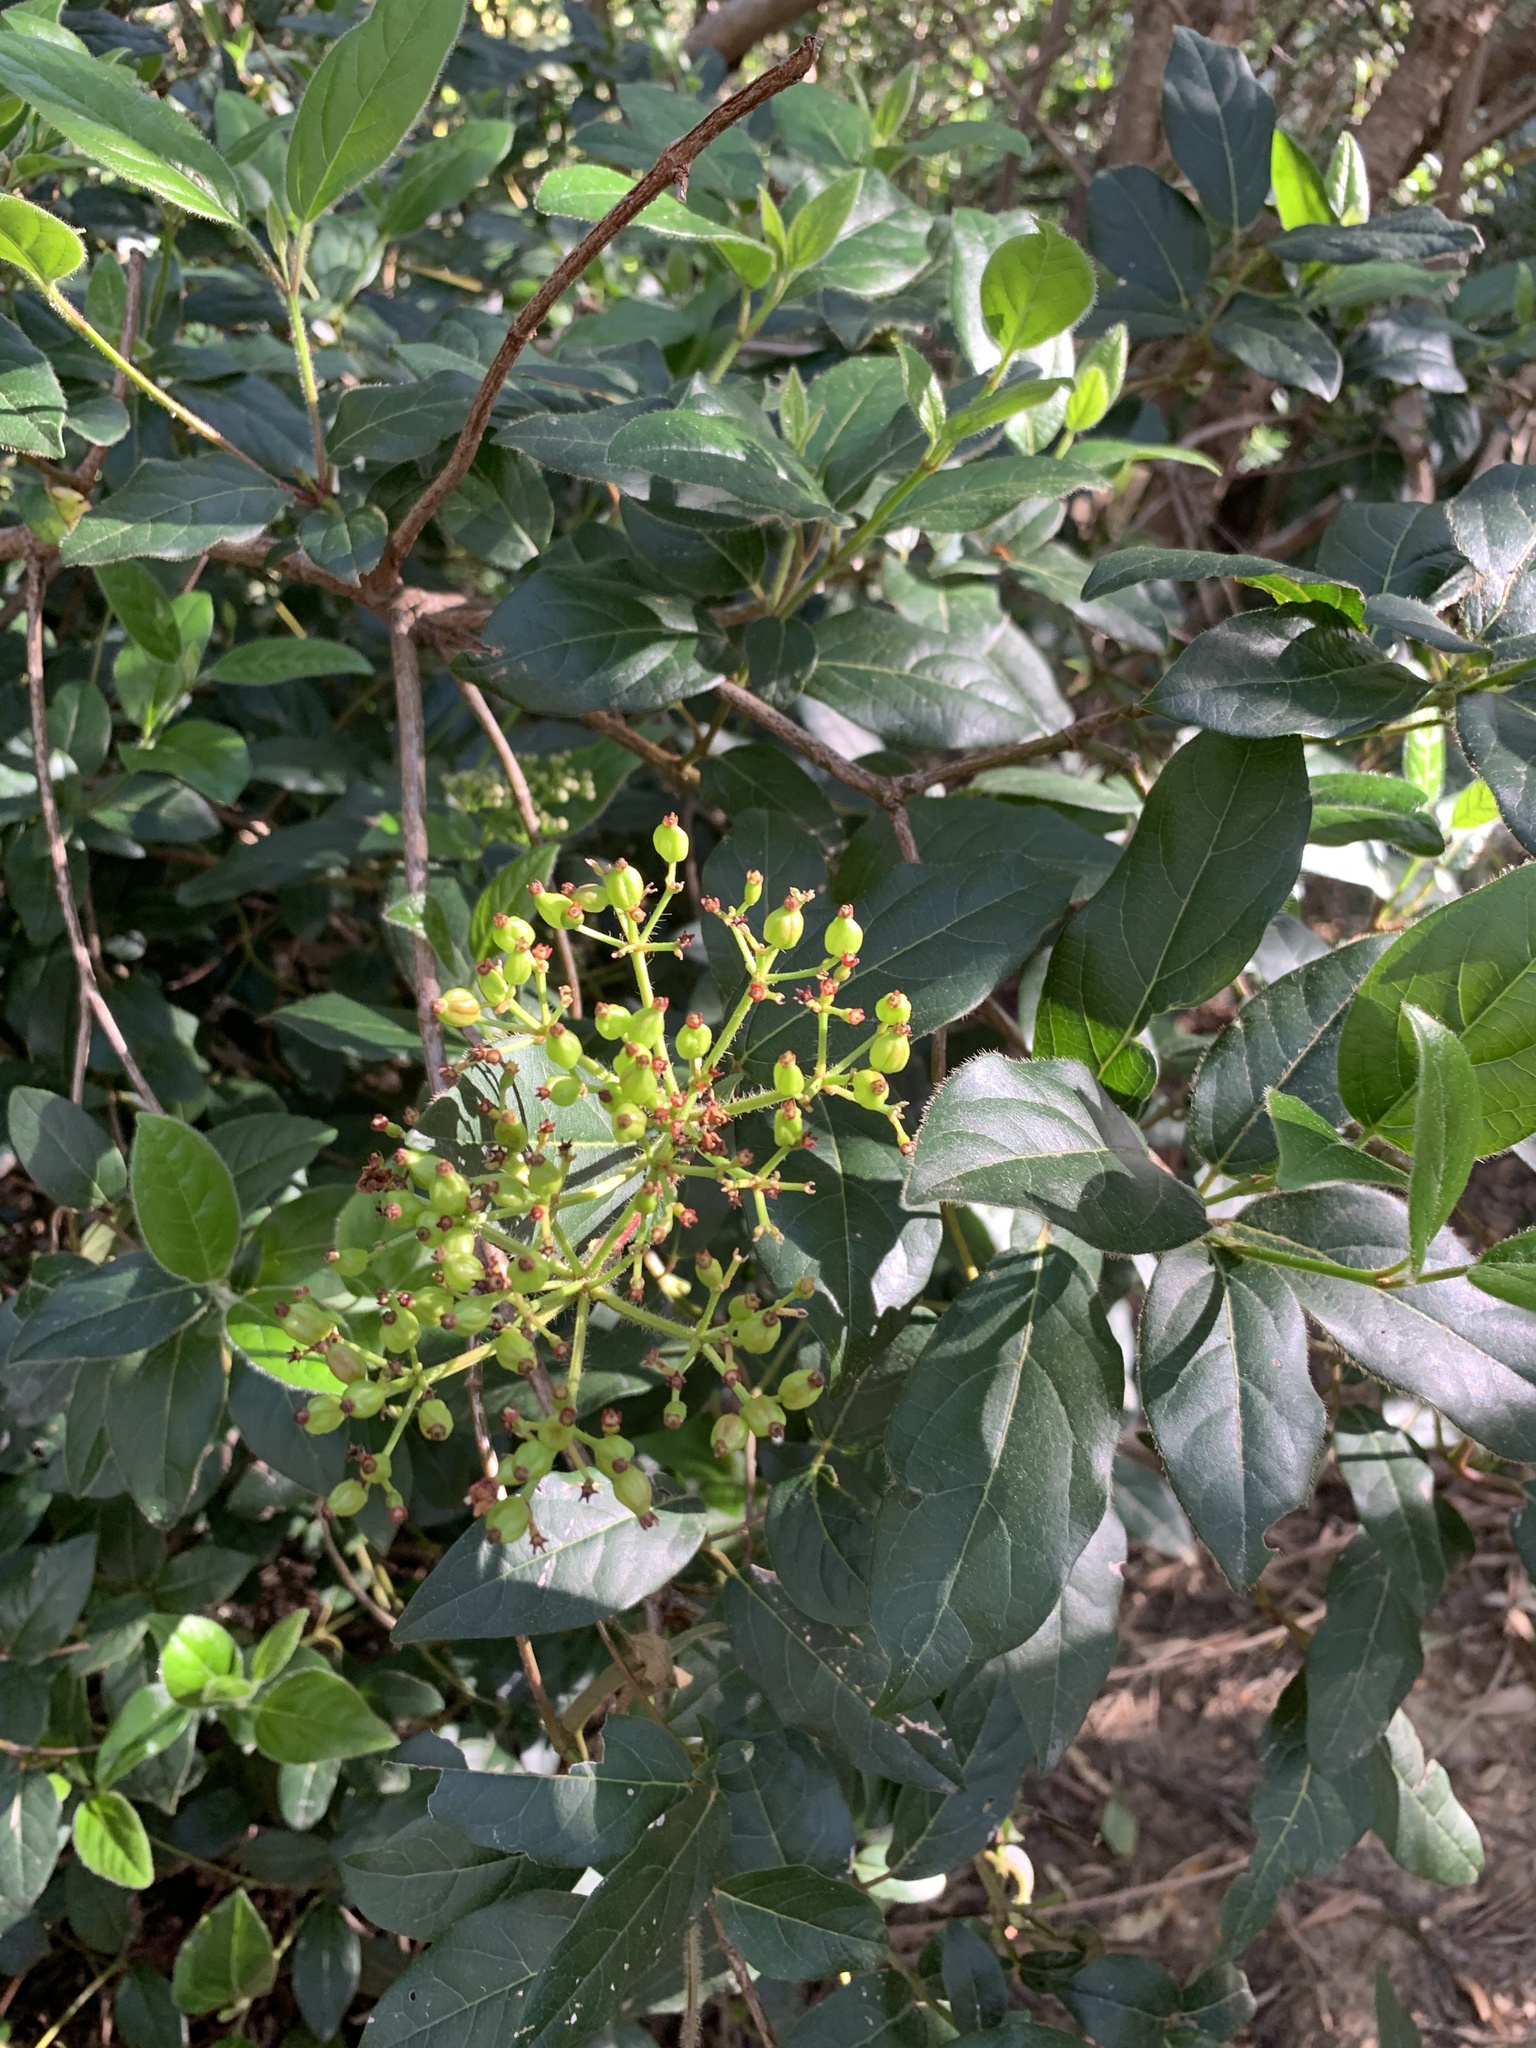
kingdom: Plantae
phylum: Tracheophyta
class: Magnoliopsida
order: Dipsacales
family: Viburnaceae
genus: Viburnum
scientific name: Viburnum tinus
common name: Laurustinus
